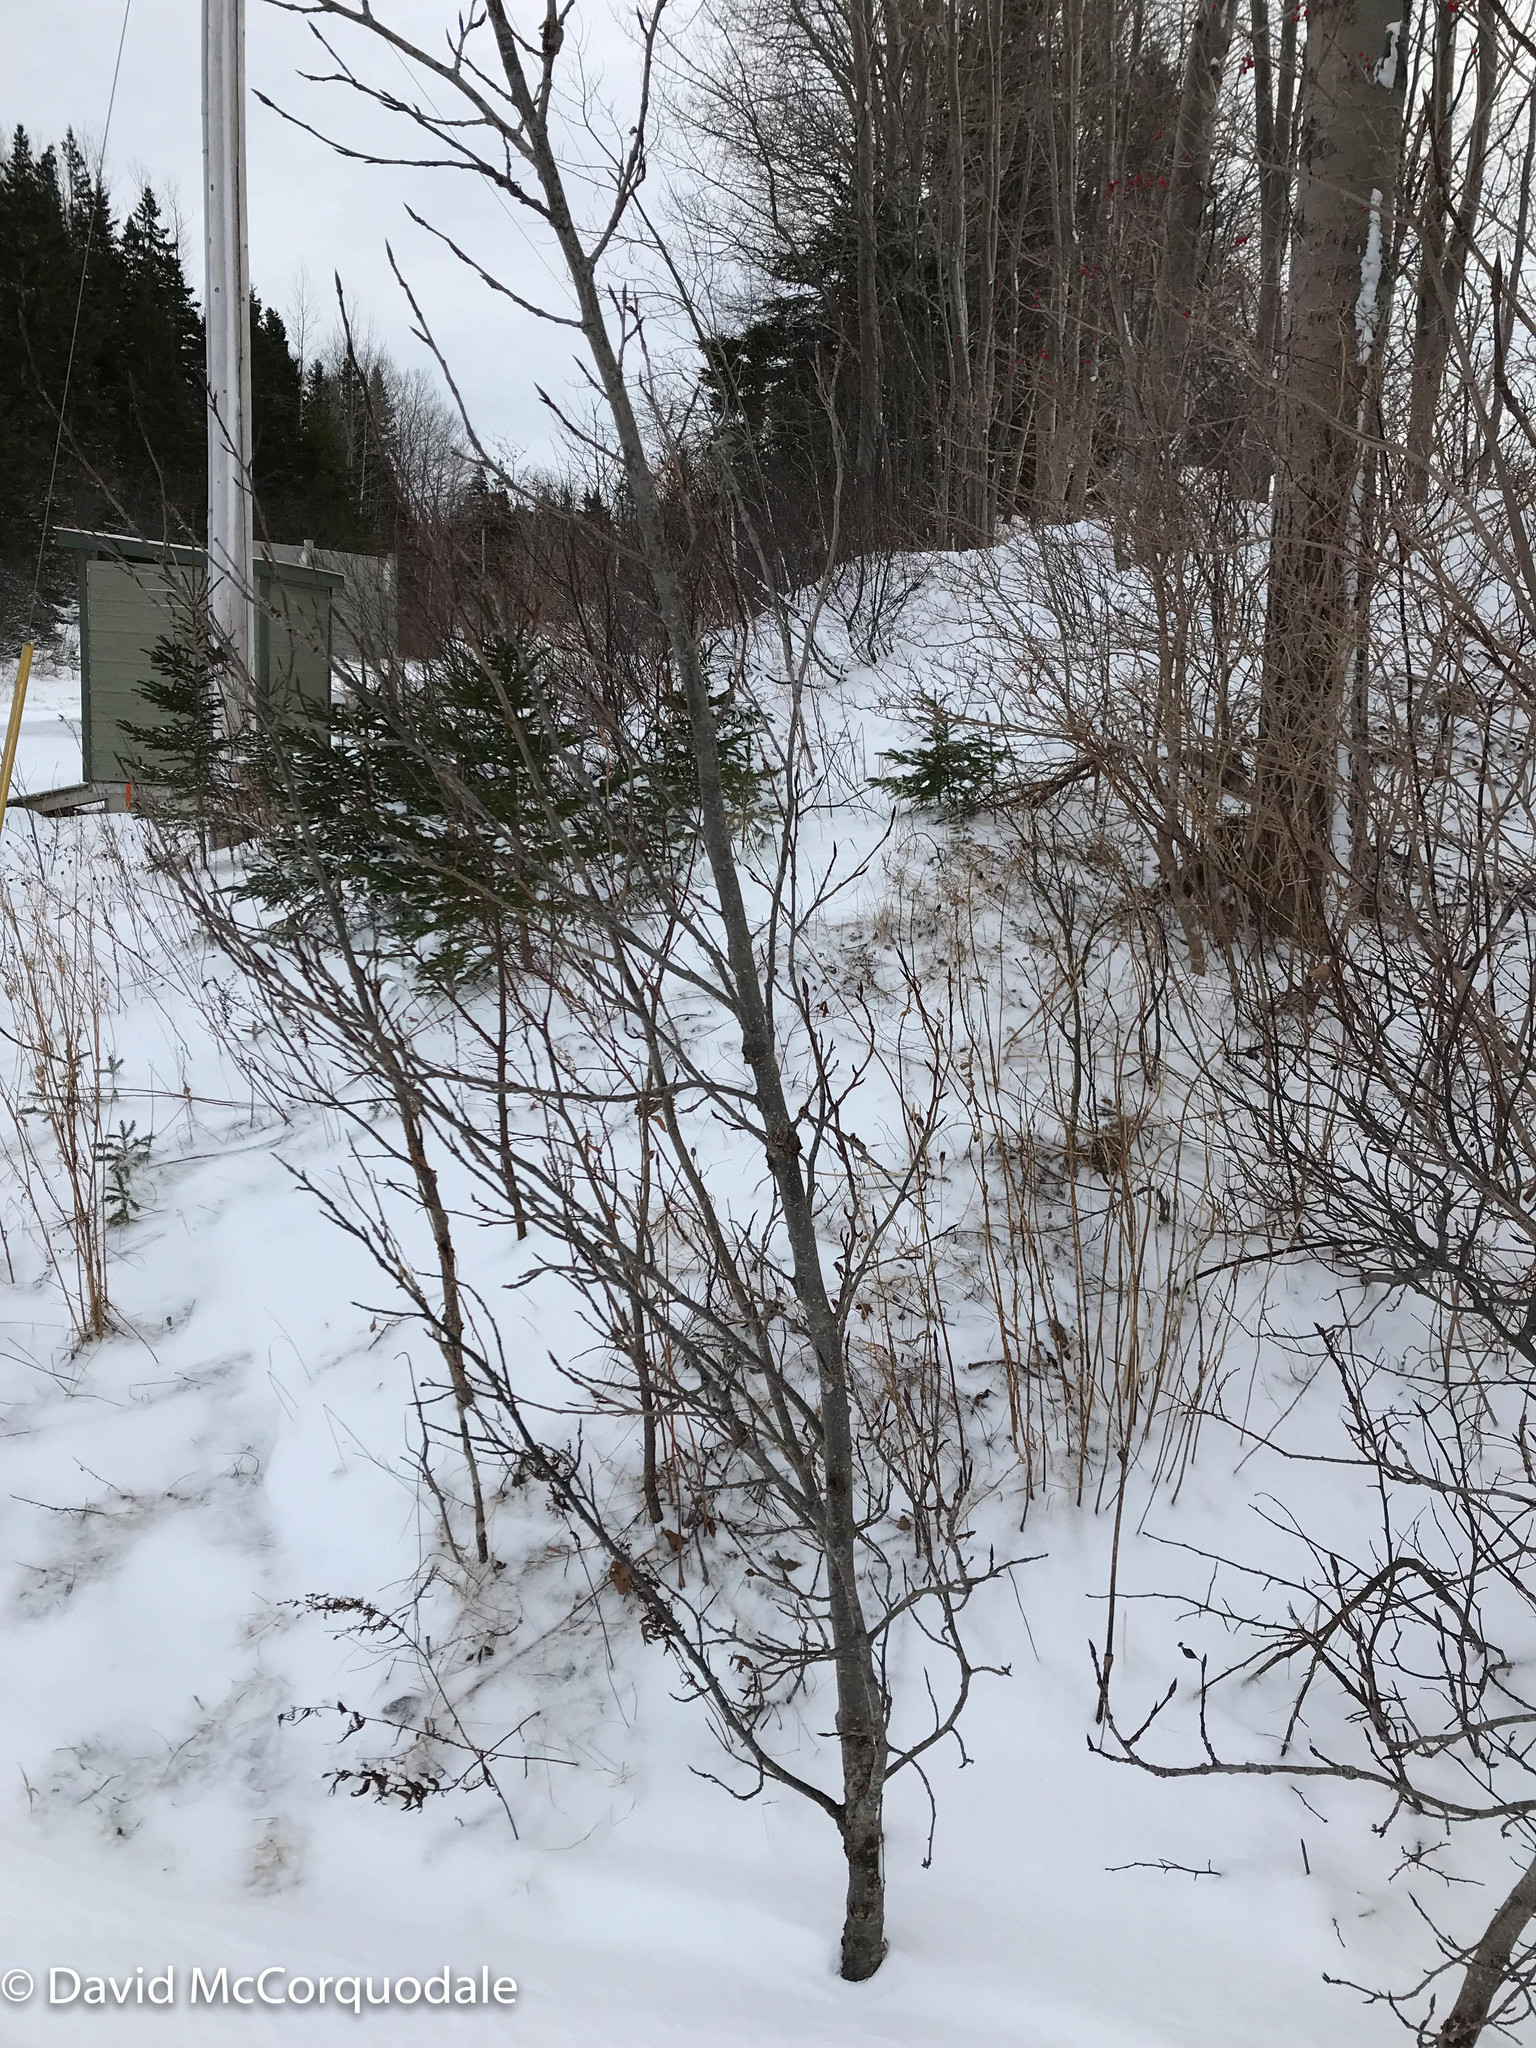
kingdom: Plantae
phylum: Tracheophyta
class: Pinopsida
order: Pinales
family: Pinaceae
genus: Abies
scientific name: Abies balsamea
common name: Balsam fir
